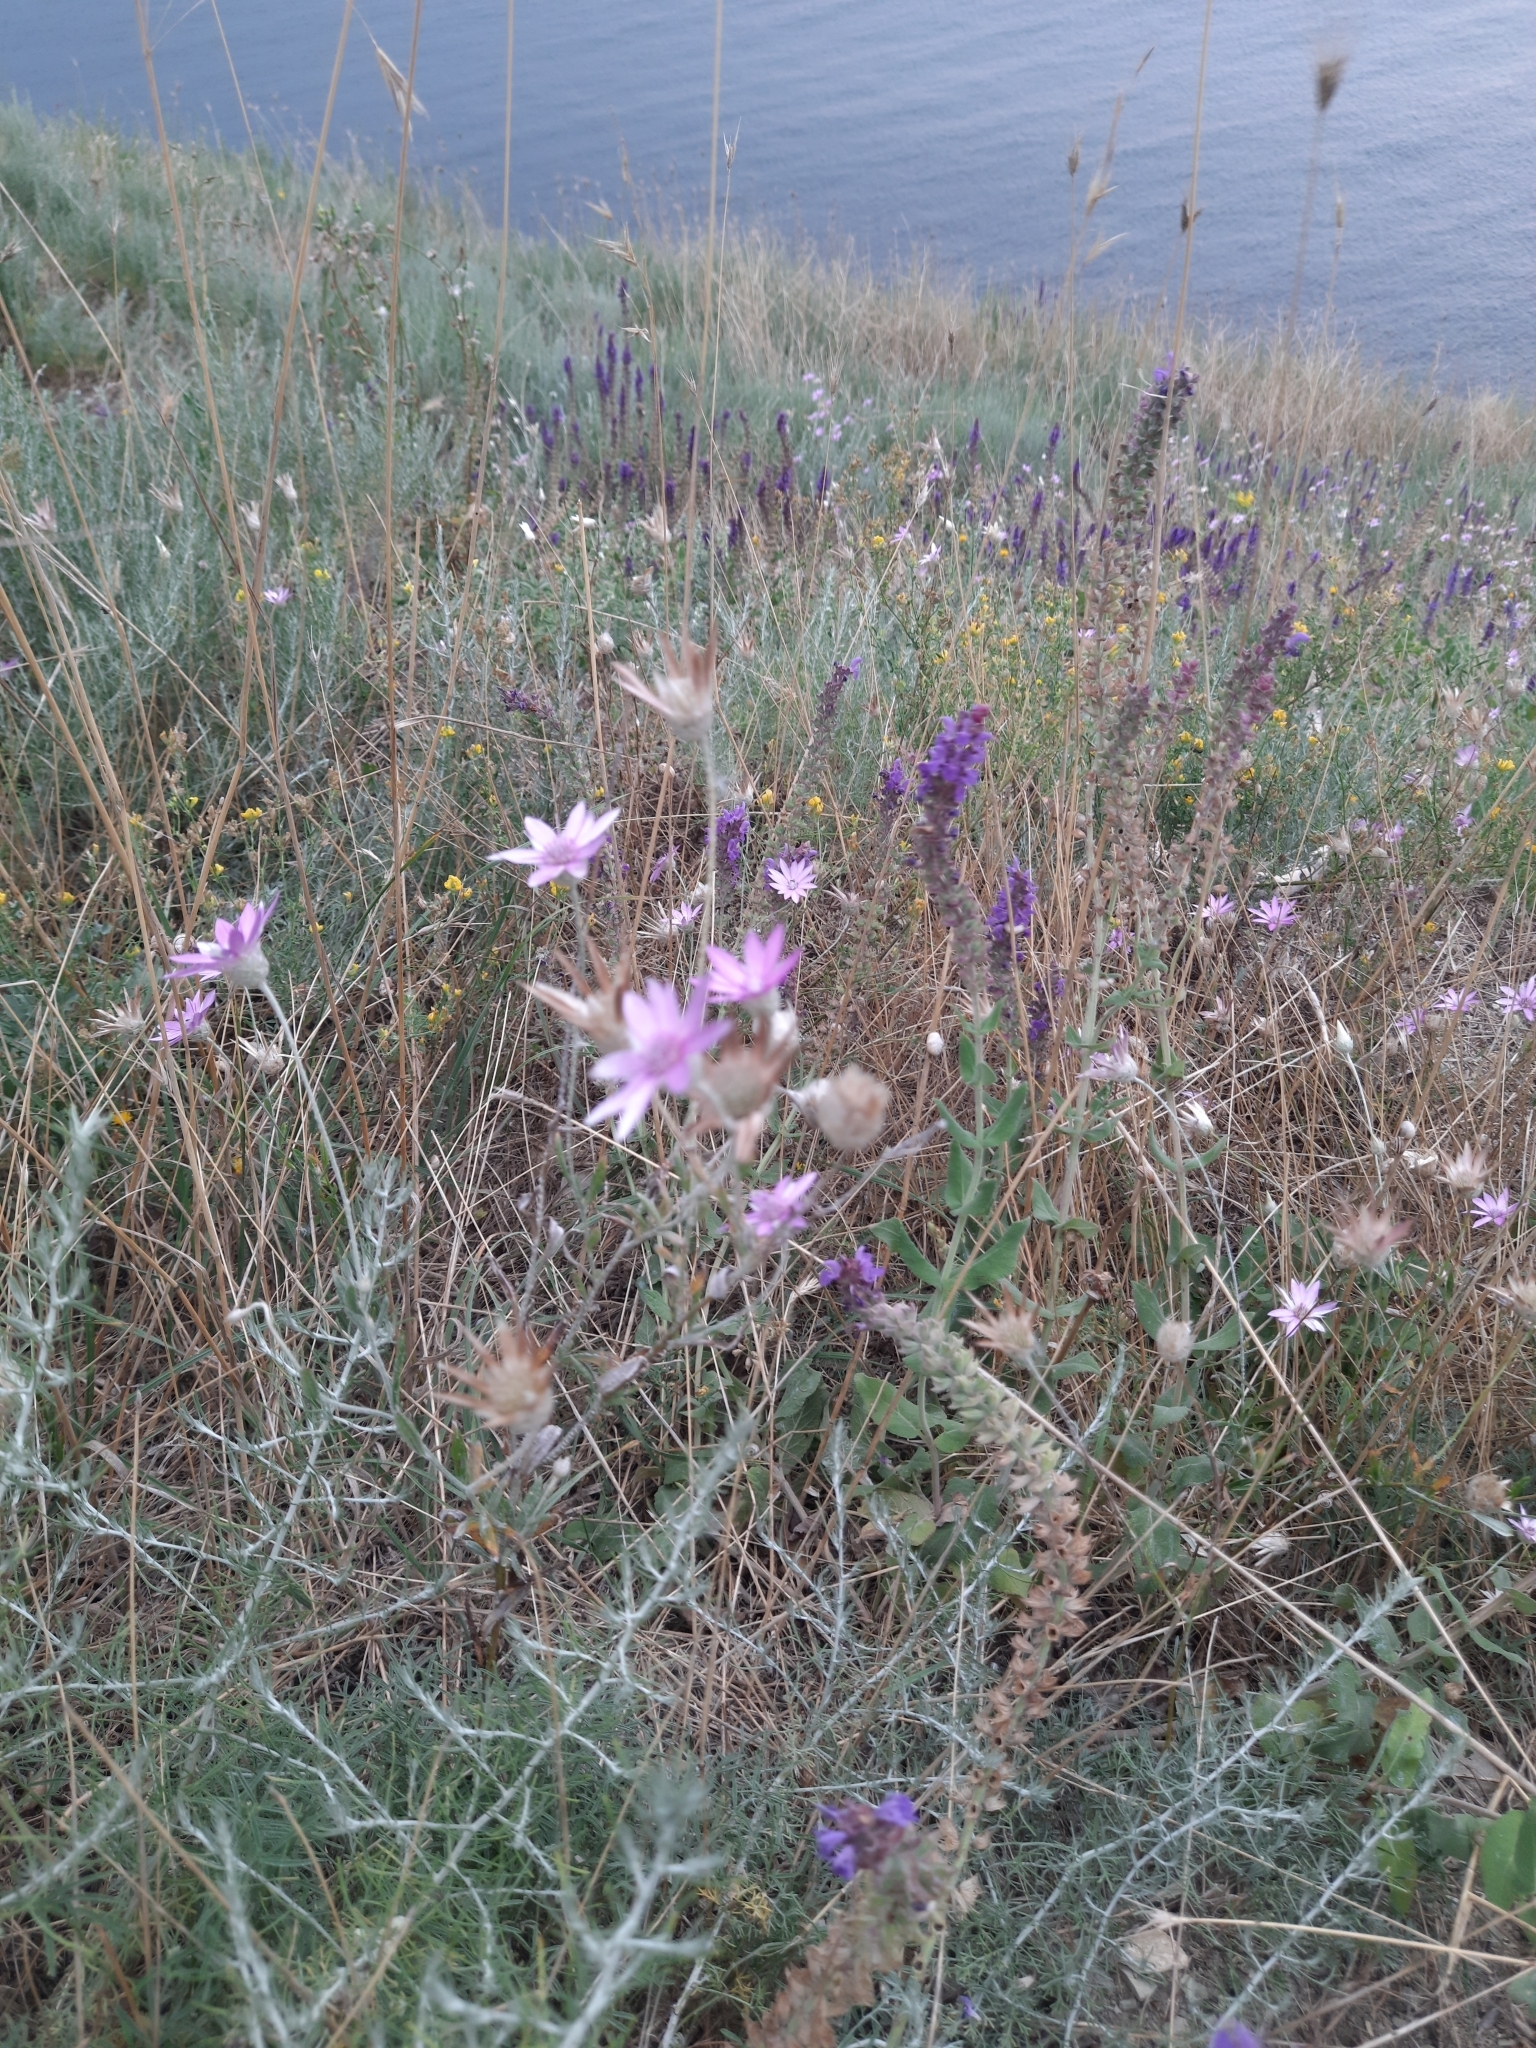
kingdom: Plantae
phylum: Tracheophyta
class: Magnoliopsida
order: Asterales
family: Asteraceae
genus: Xeranthemum
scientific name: Xeranthemum annuum
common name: Immortelle
